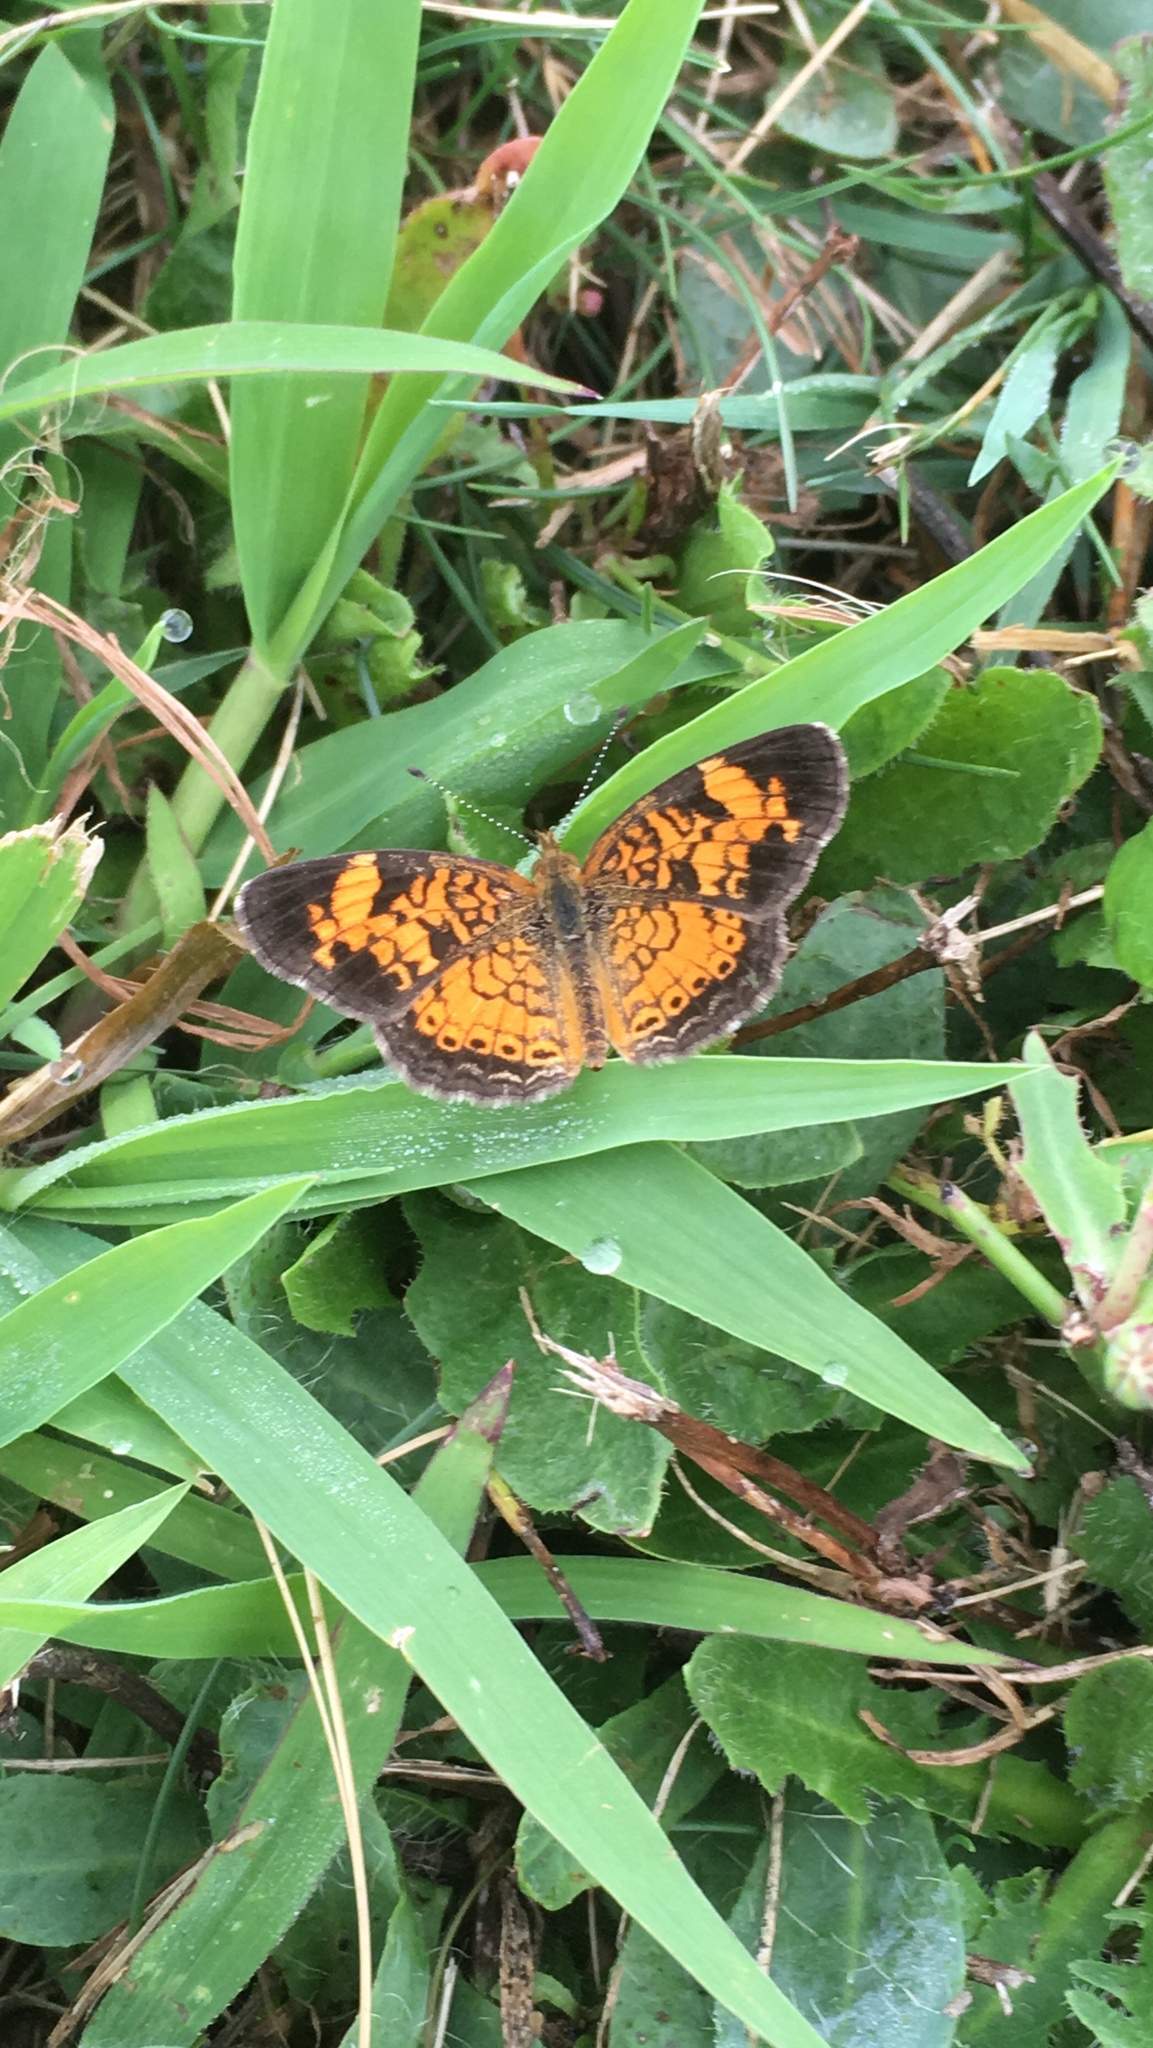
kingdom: Animalia
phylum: Arthropoda
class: Insecta
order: Lepidoptera
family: Nymphalidae
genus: Phyciodes
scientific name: Phyciodes tharos
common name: Pearl crescent
